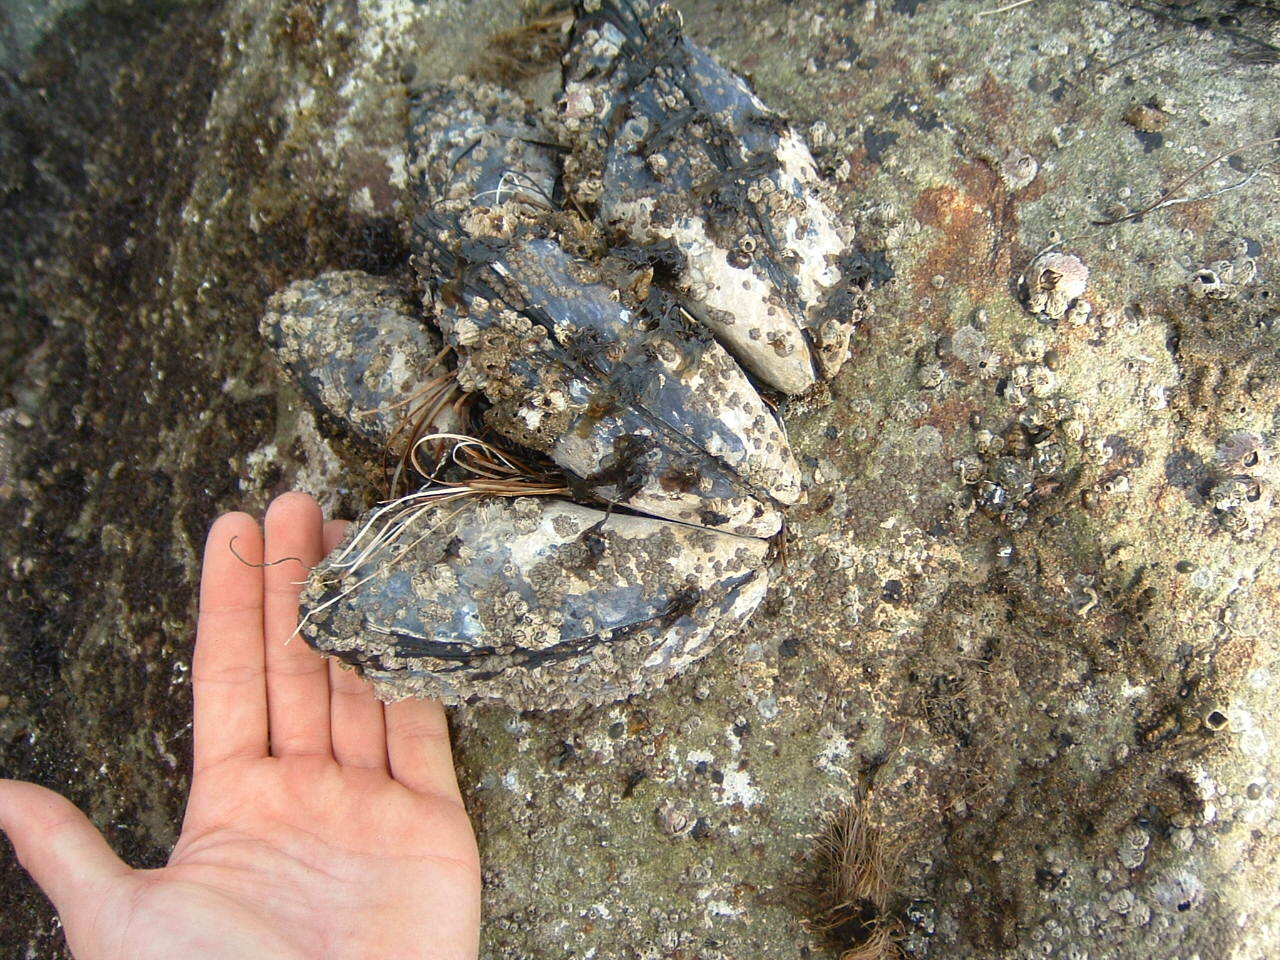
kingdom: Animalia
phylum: Mollusca
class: Bivalvia
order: Mytilida
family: Mytilidae
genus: Mytilus
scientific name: Mytilus californianus
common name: California mussel
